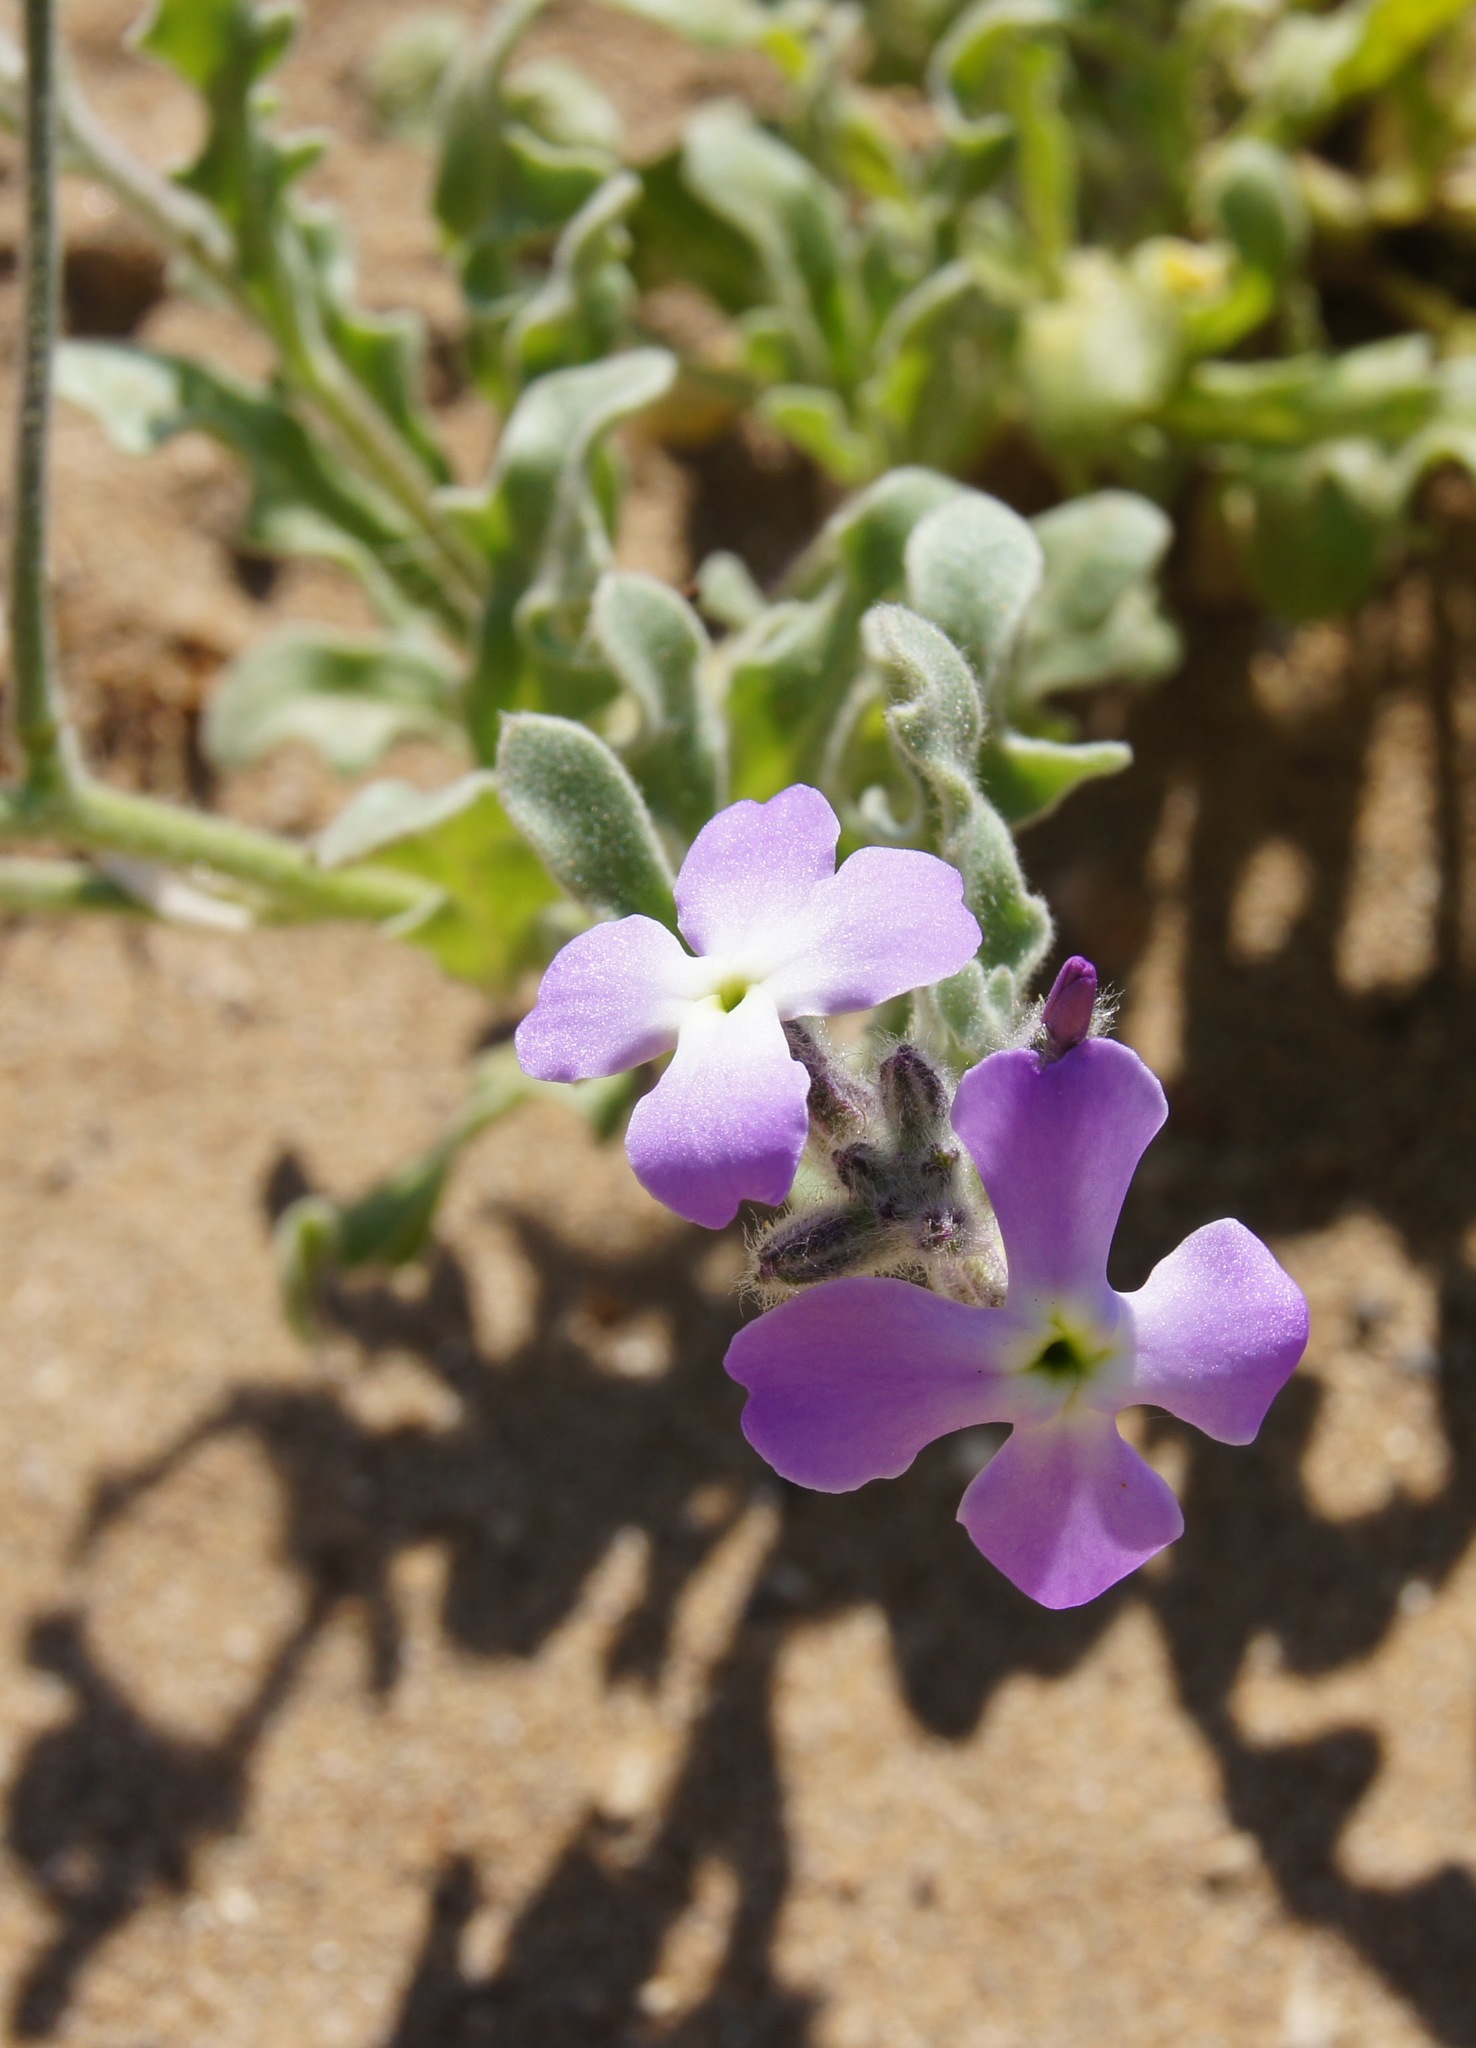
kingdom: Plantae
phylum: Tracheophyta
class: Magnoliopsida
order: Brassicales
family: Brassicaceae
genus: Matthiola
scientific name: Matthiola tricuspidata
